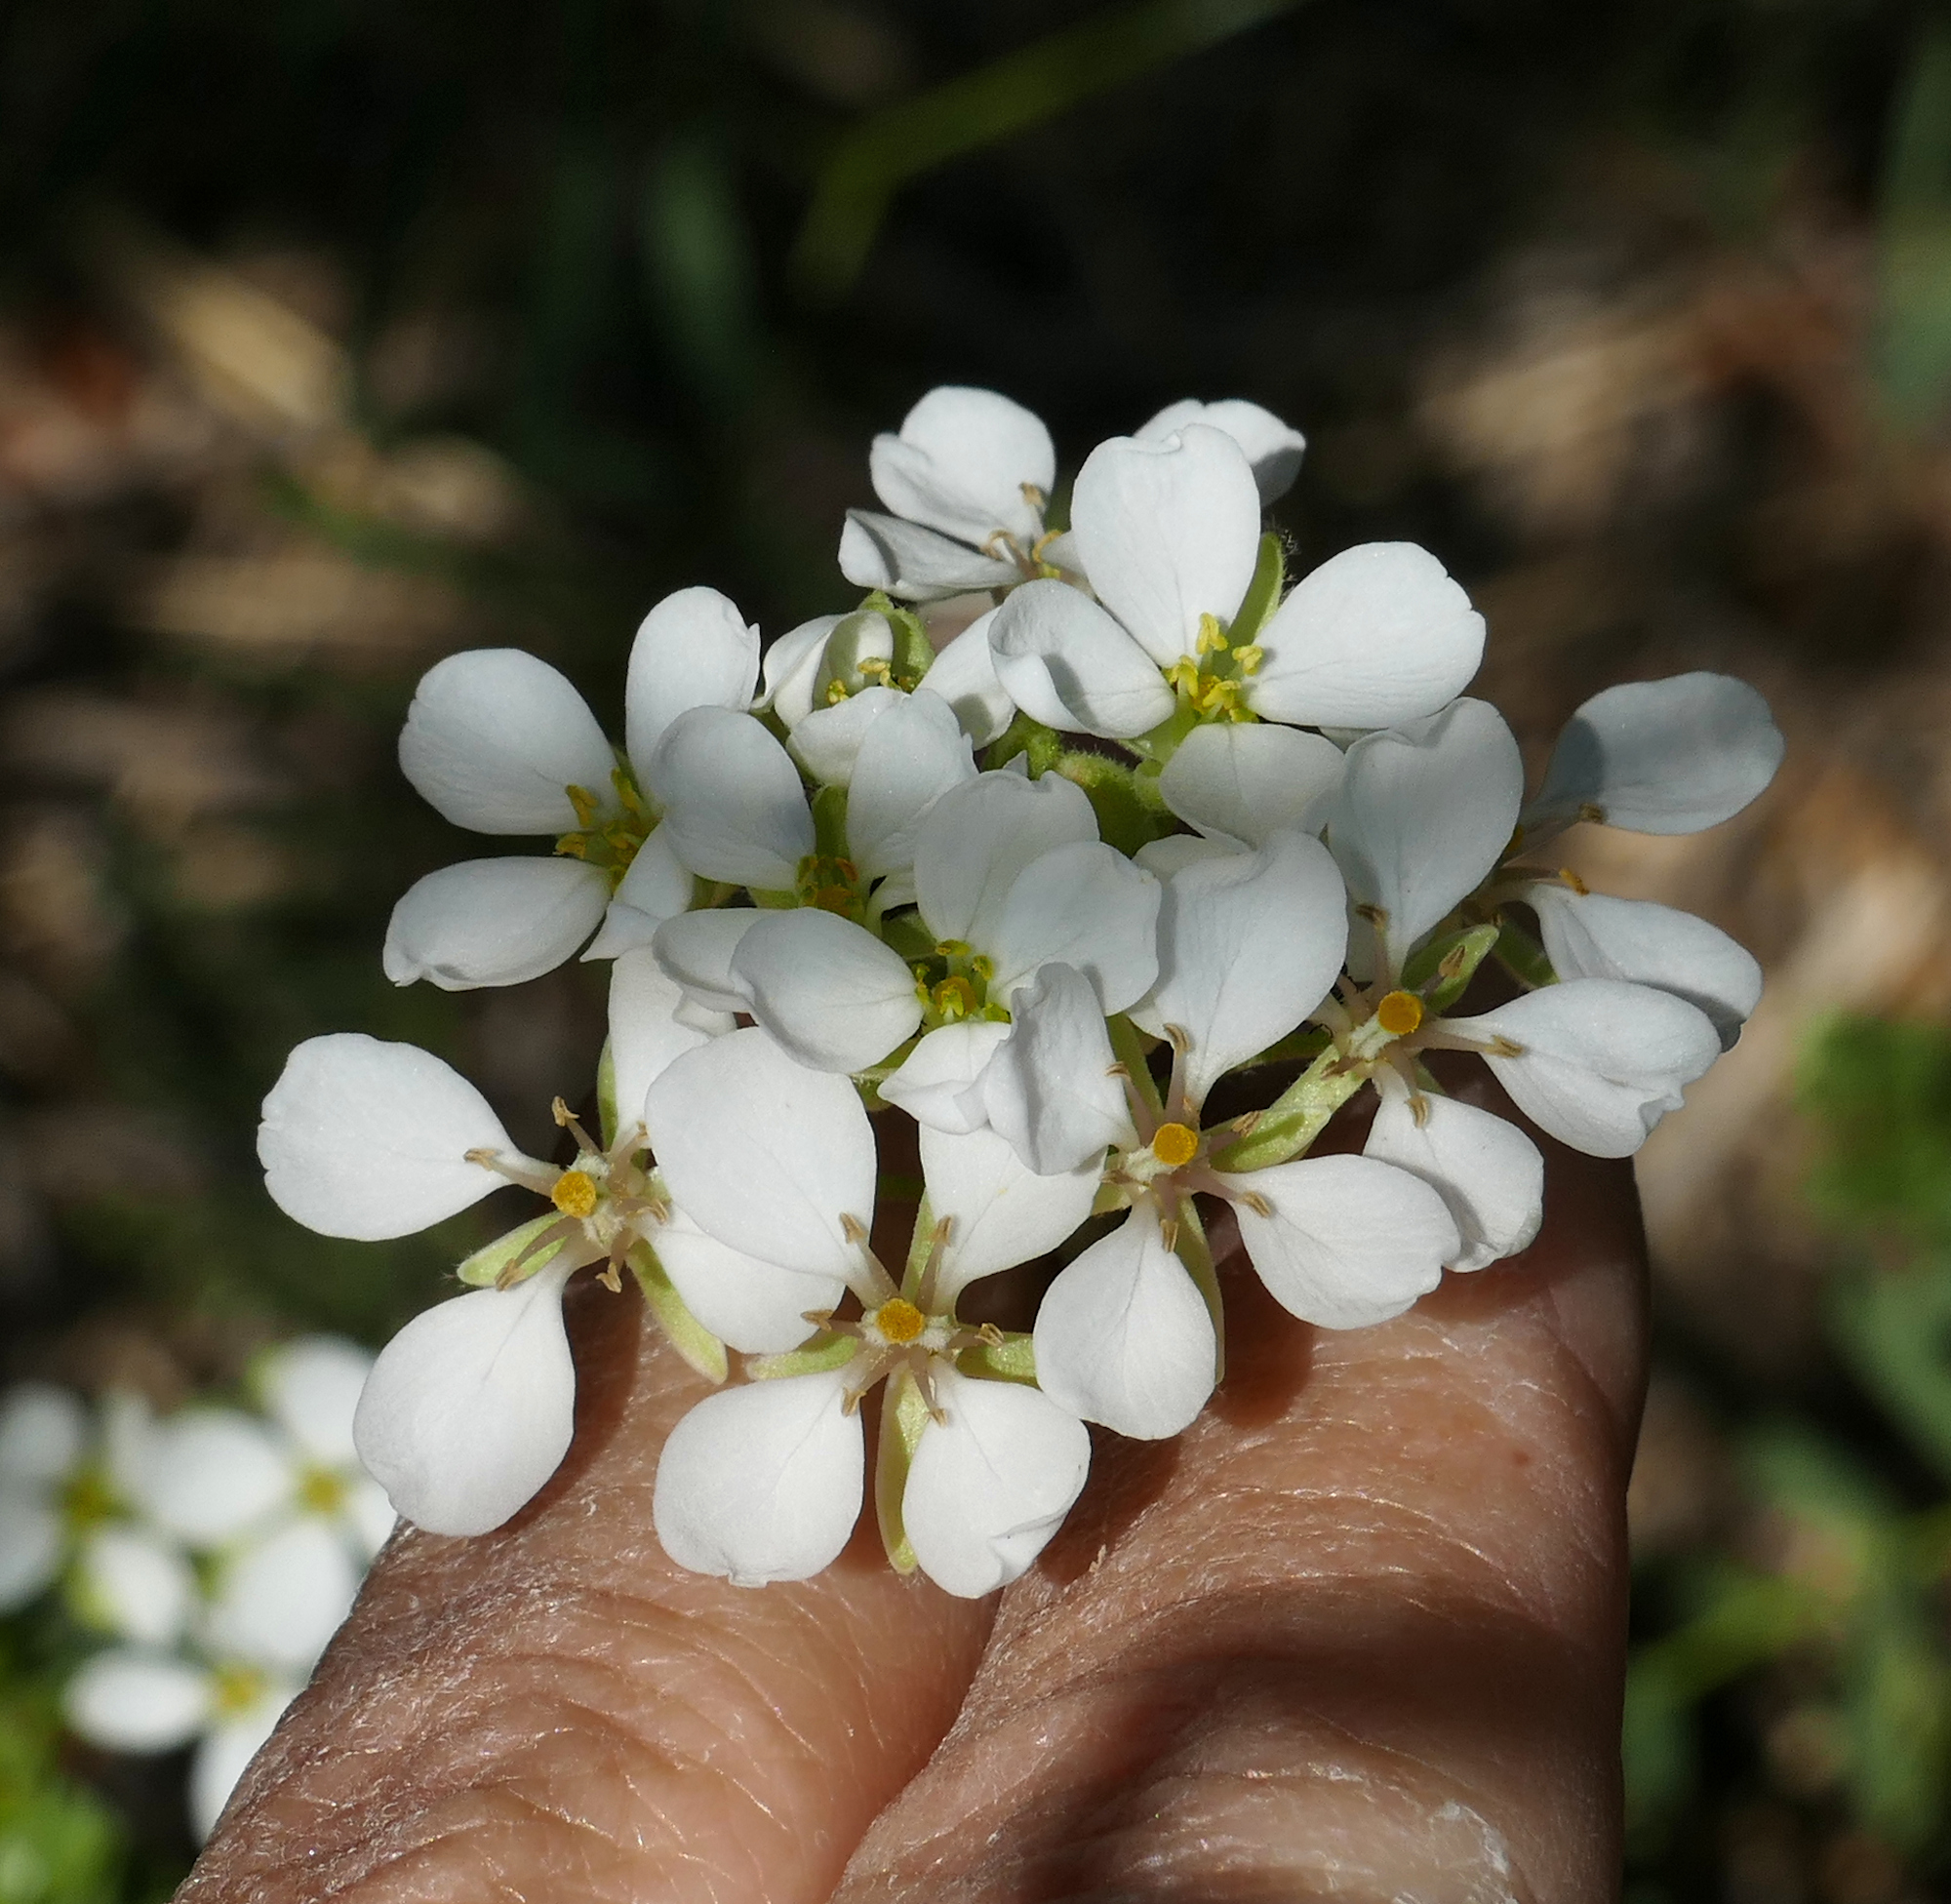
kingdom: Plantae
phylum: Tracheophyta
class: Magnoliopsida
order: Brassicales
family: Brassicaceae
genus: Dimorphocarpa
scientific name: Dimorphocarpa wislizenii
